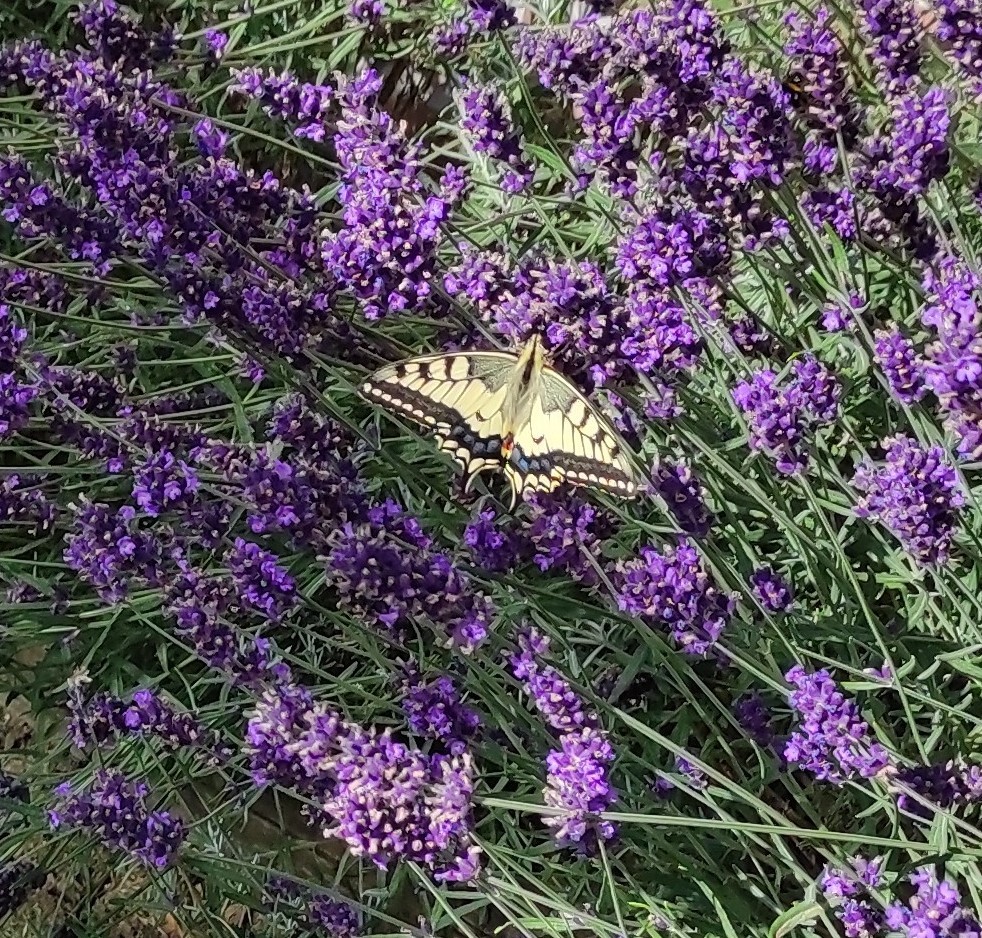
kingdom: Animalia
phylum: Arthropoda
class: Insecta
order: Lepidoptera
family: Papilionidae
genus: Papilio
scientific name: Papilio machaon
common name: Swallowtail
